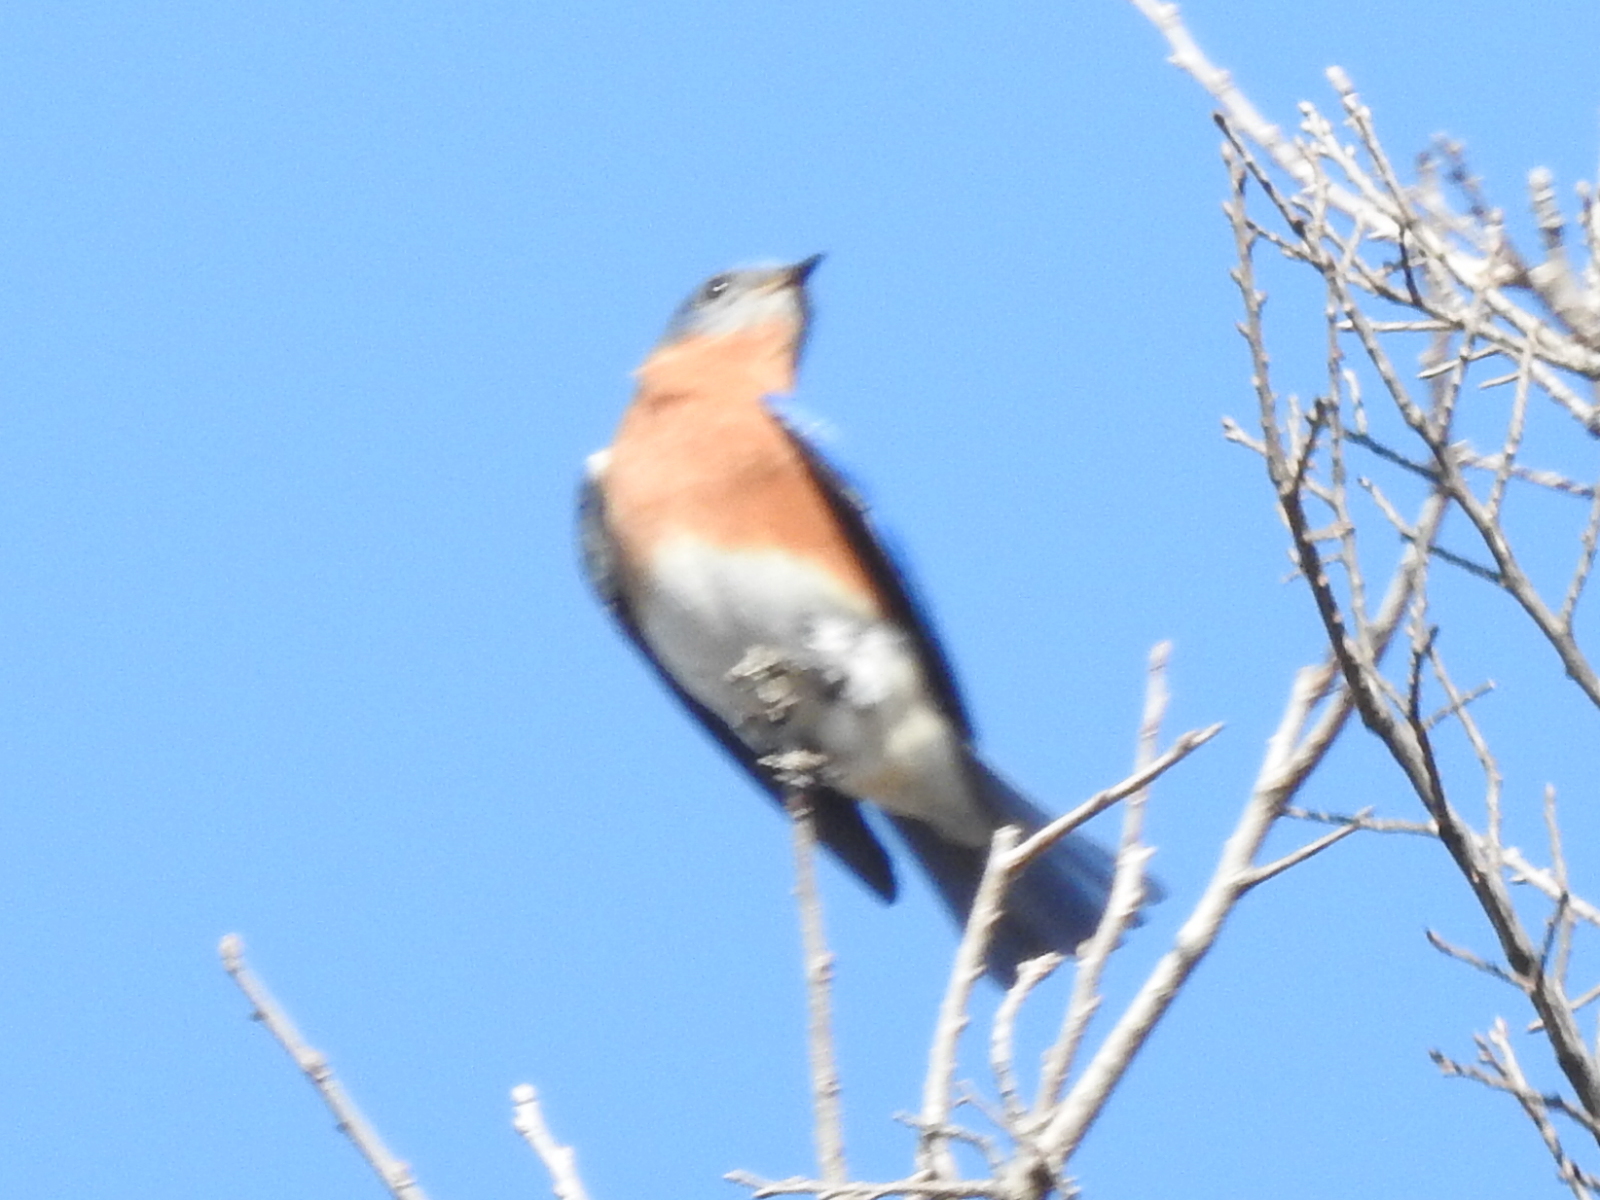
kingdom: Animalia
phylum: Chordata
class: Aves
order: Passeriformes
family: Turdidae
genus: Sialia
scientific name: Sialia sialis
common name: Eastern bluebird
